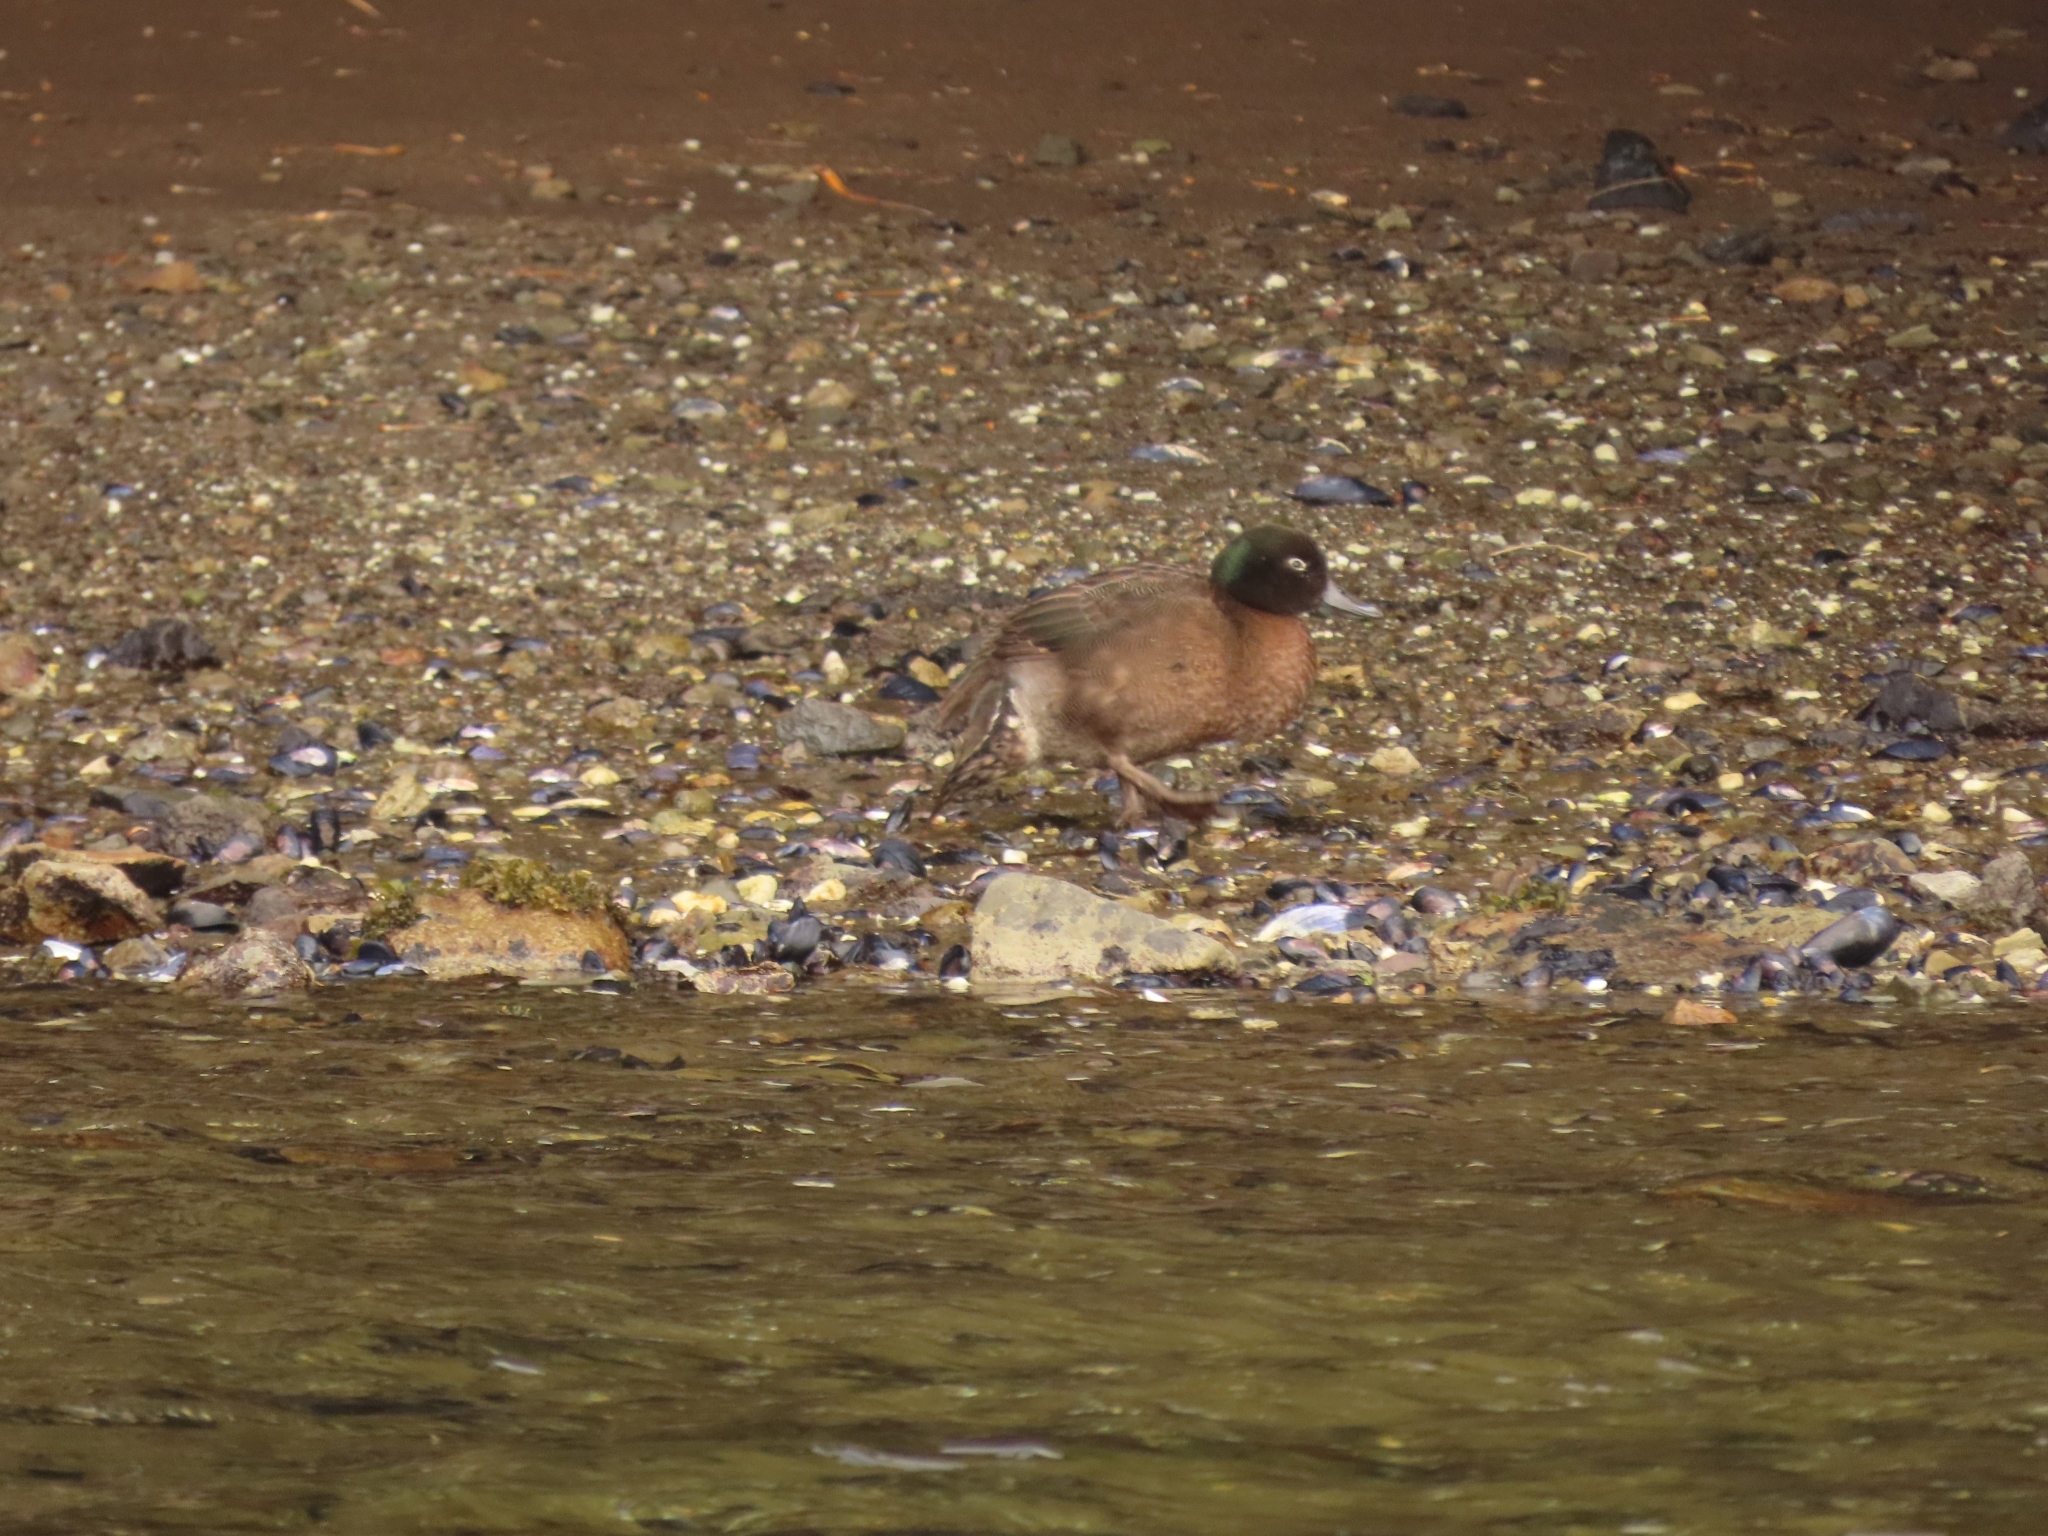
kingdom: Animalia
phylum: Chordata
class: Aves
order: Anseriformes
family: Anatidae
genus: Anas
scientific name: Anas nesiotis
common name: Campbell teal
